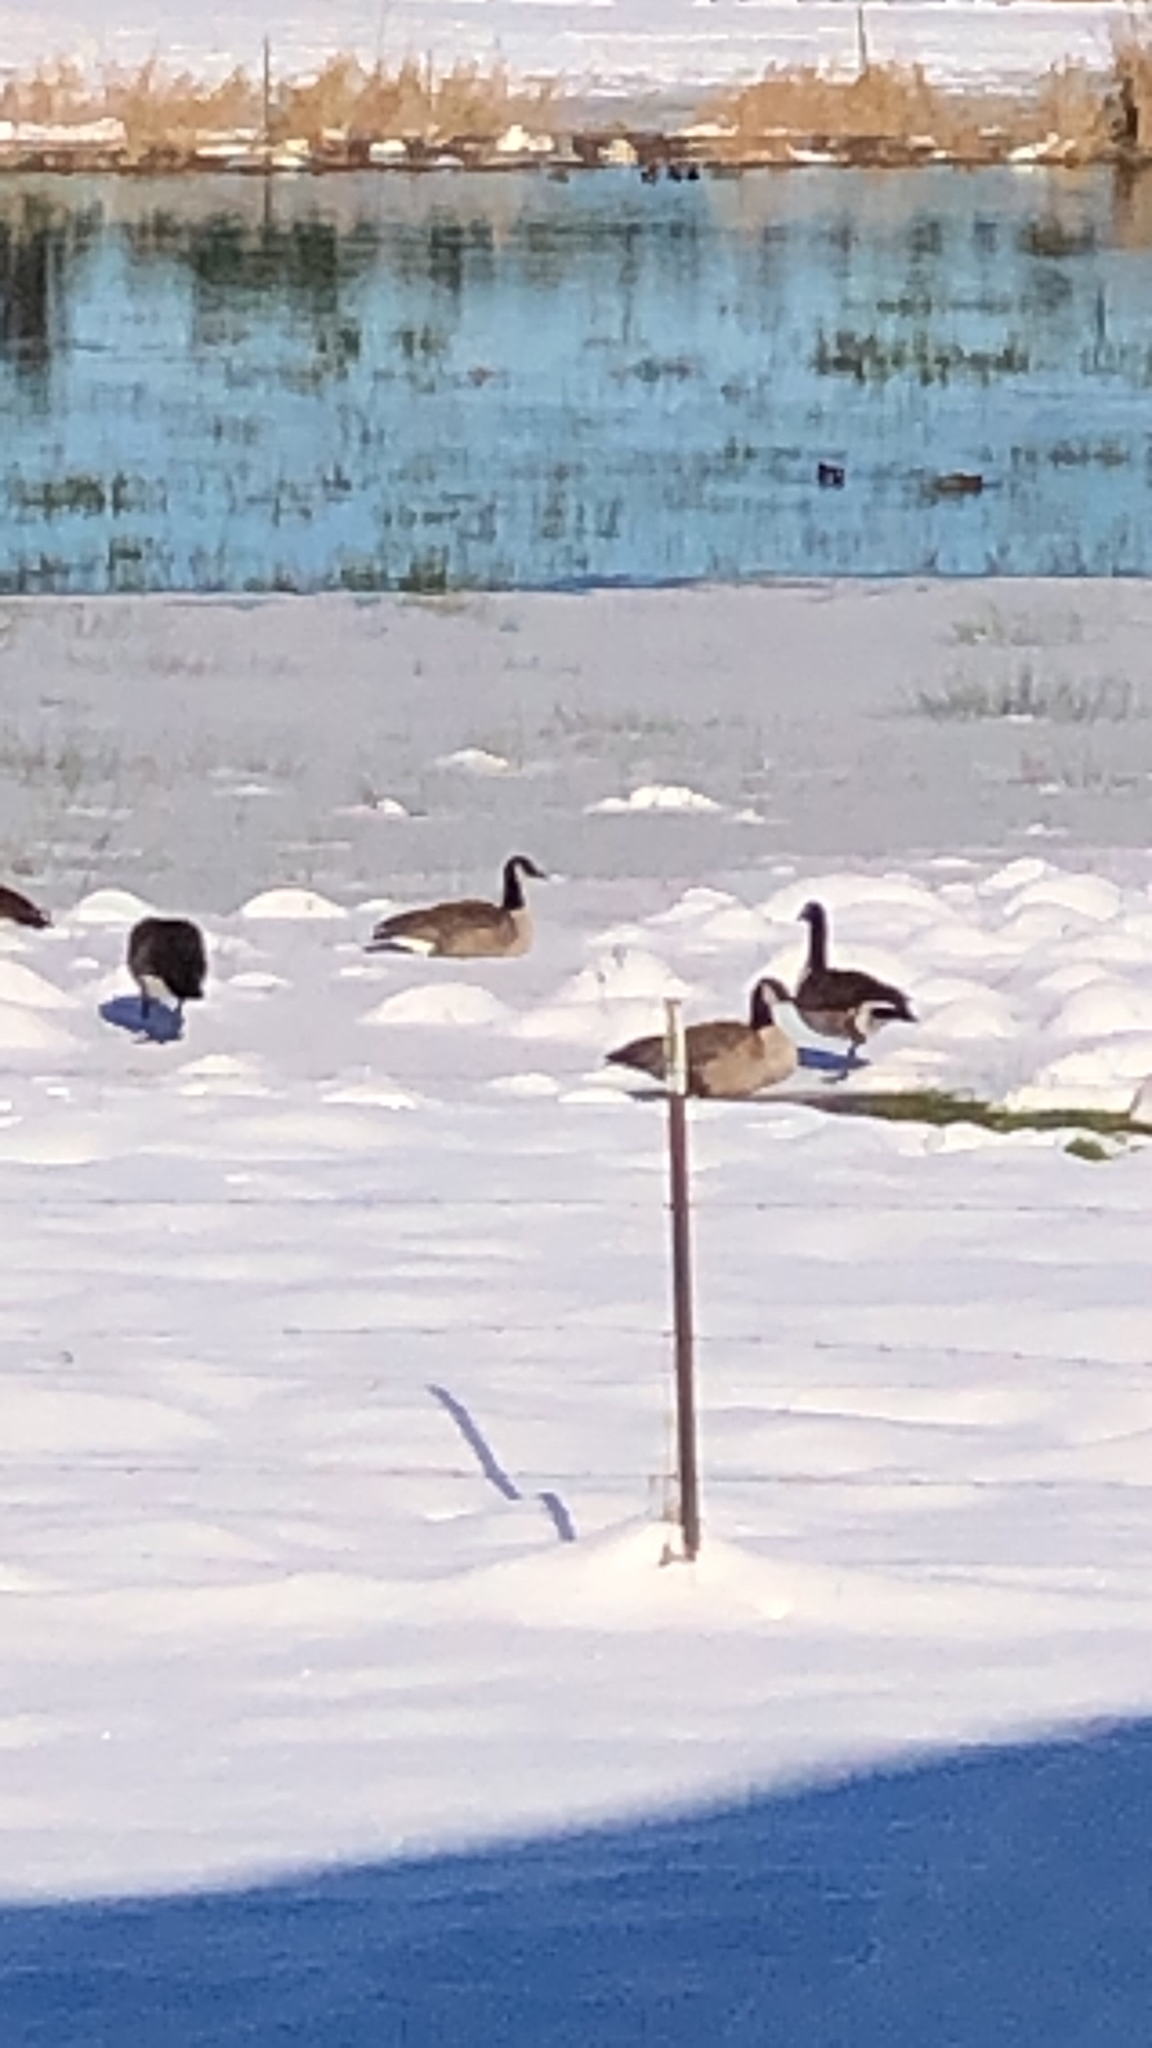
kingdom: Animalia
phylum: Chordata
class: Aves
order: Anseriformes
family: Anatidae
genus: Branta
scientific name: Branta canadensis
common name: Canada goose
